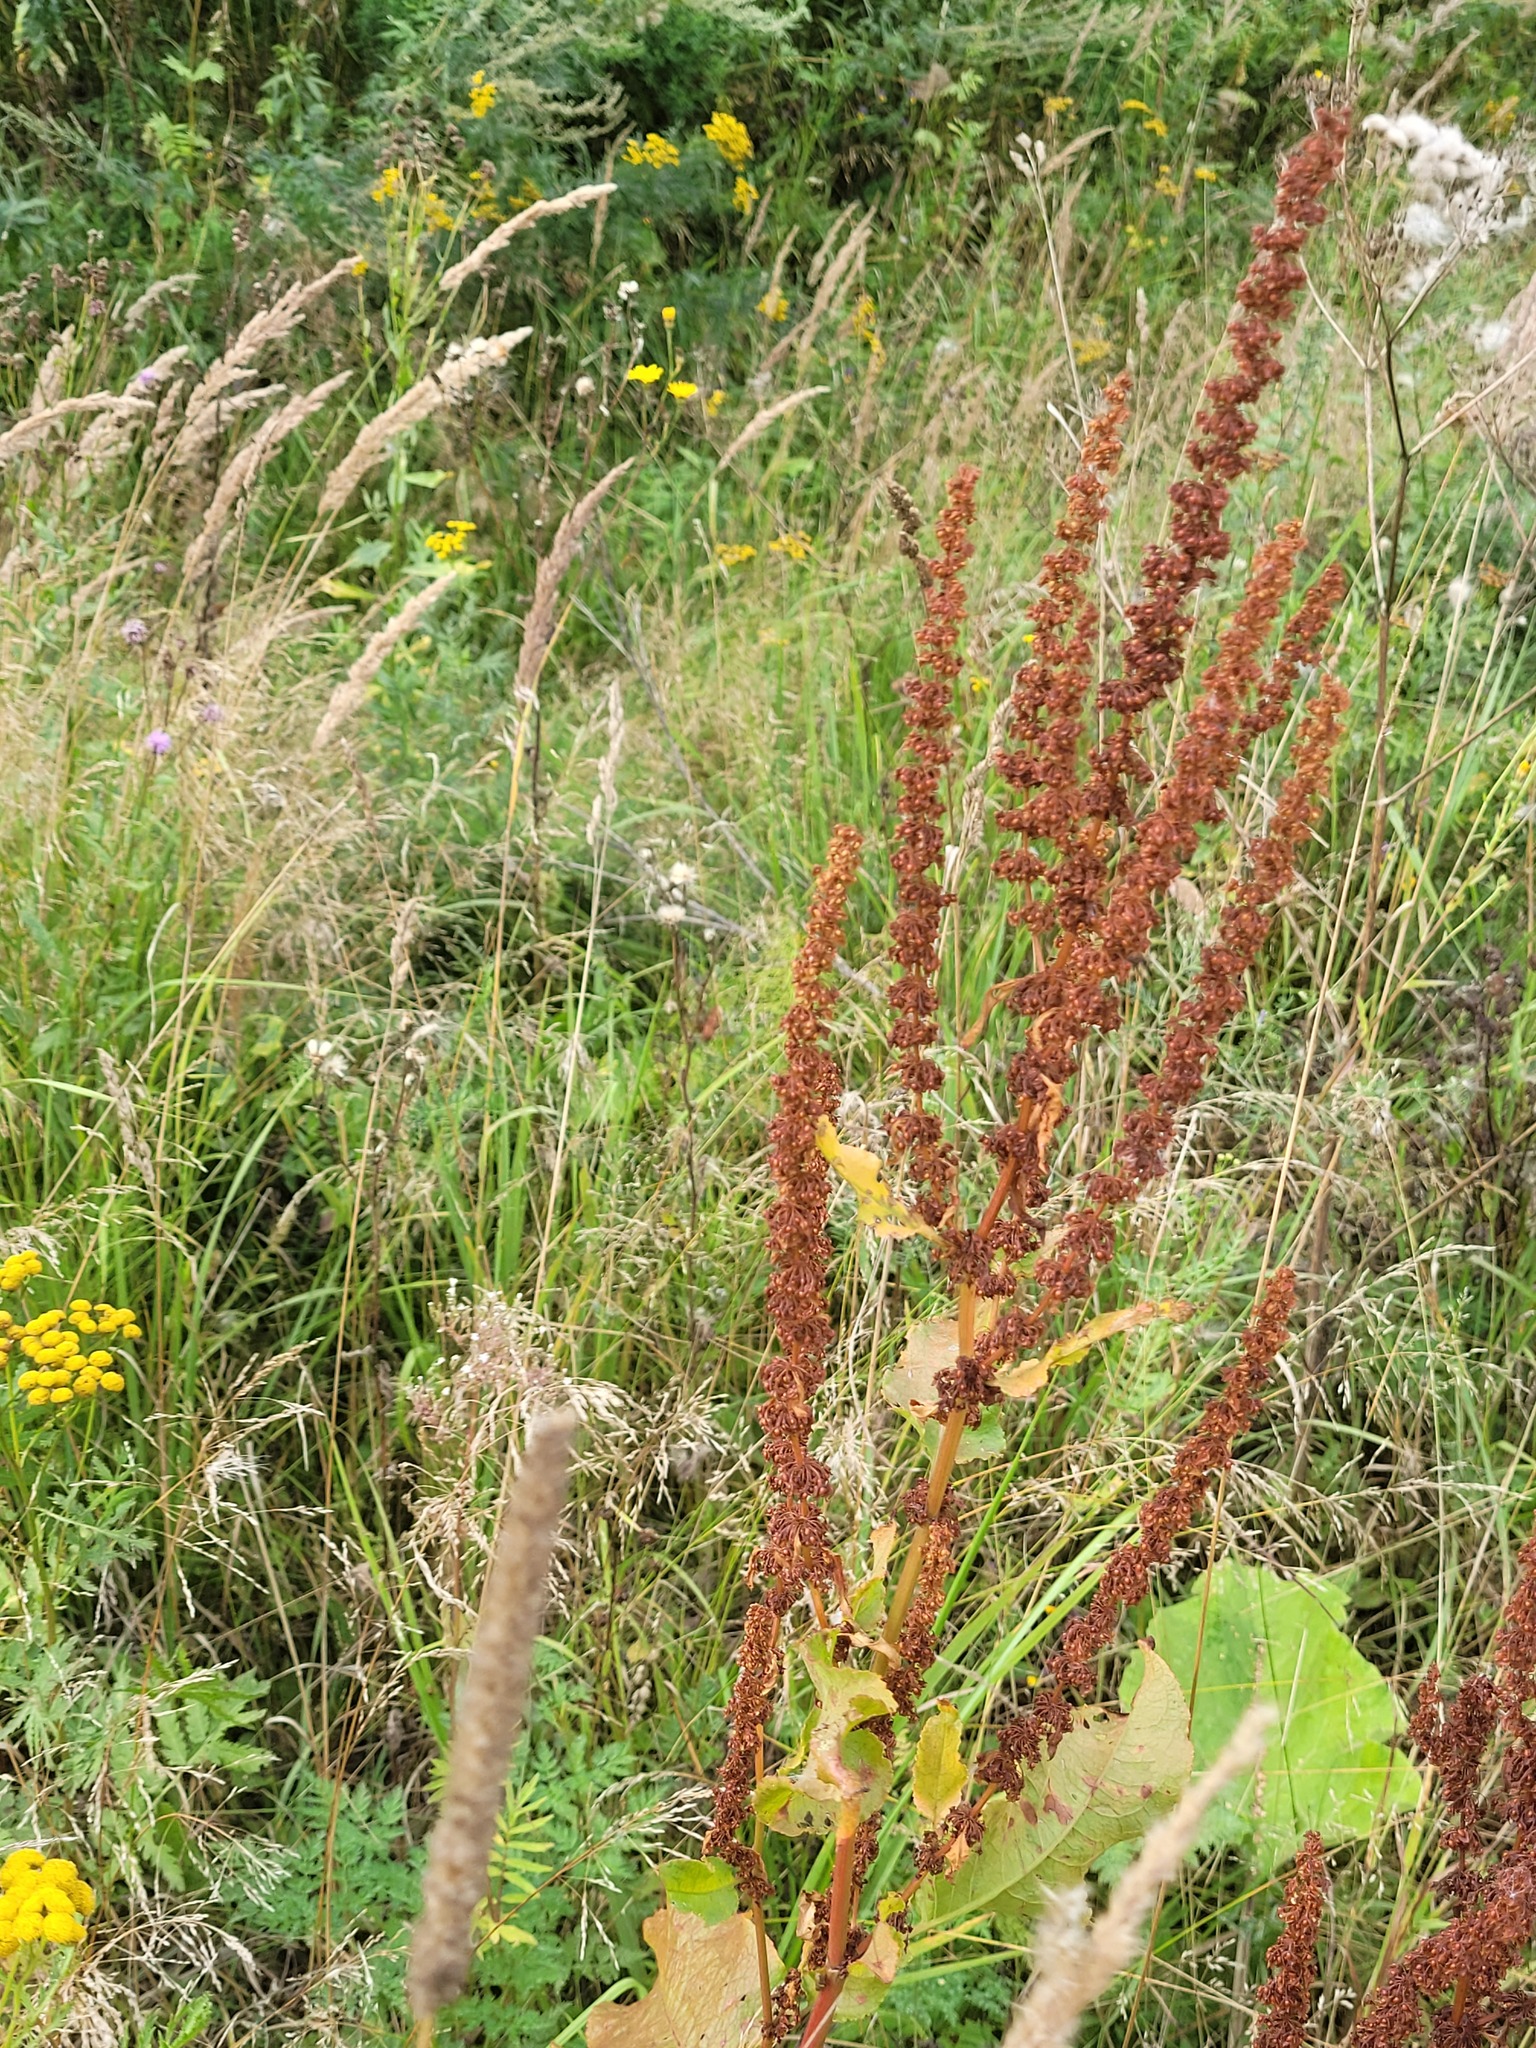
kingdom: Plantae
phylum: Tracheophyta
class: Magnoliopsida
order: Caryophyllales
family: Polygonaceae
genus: Rumex
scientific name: Rumex obtusifolius
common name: Bitter dock
